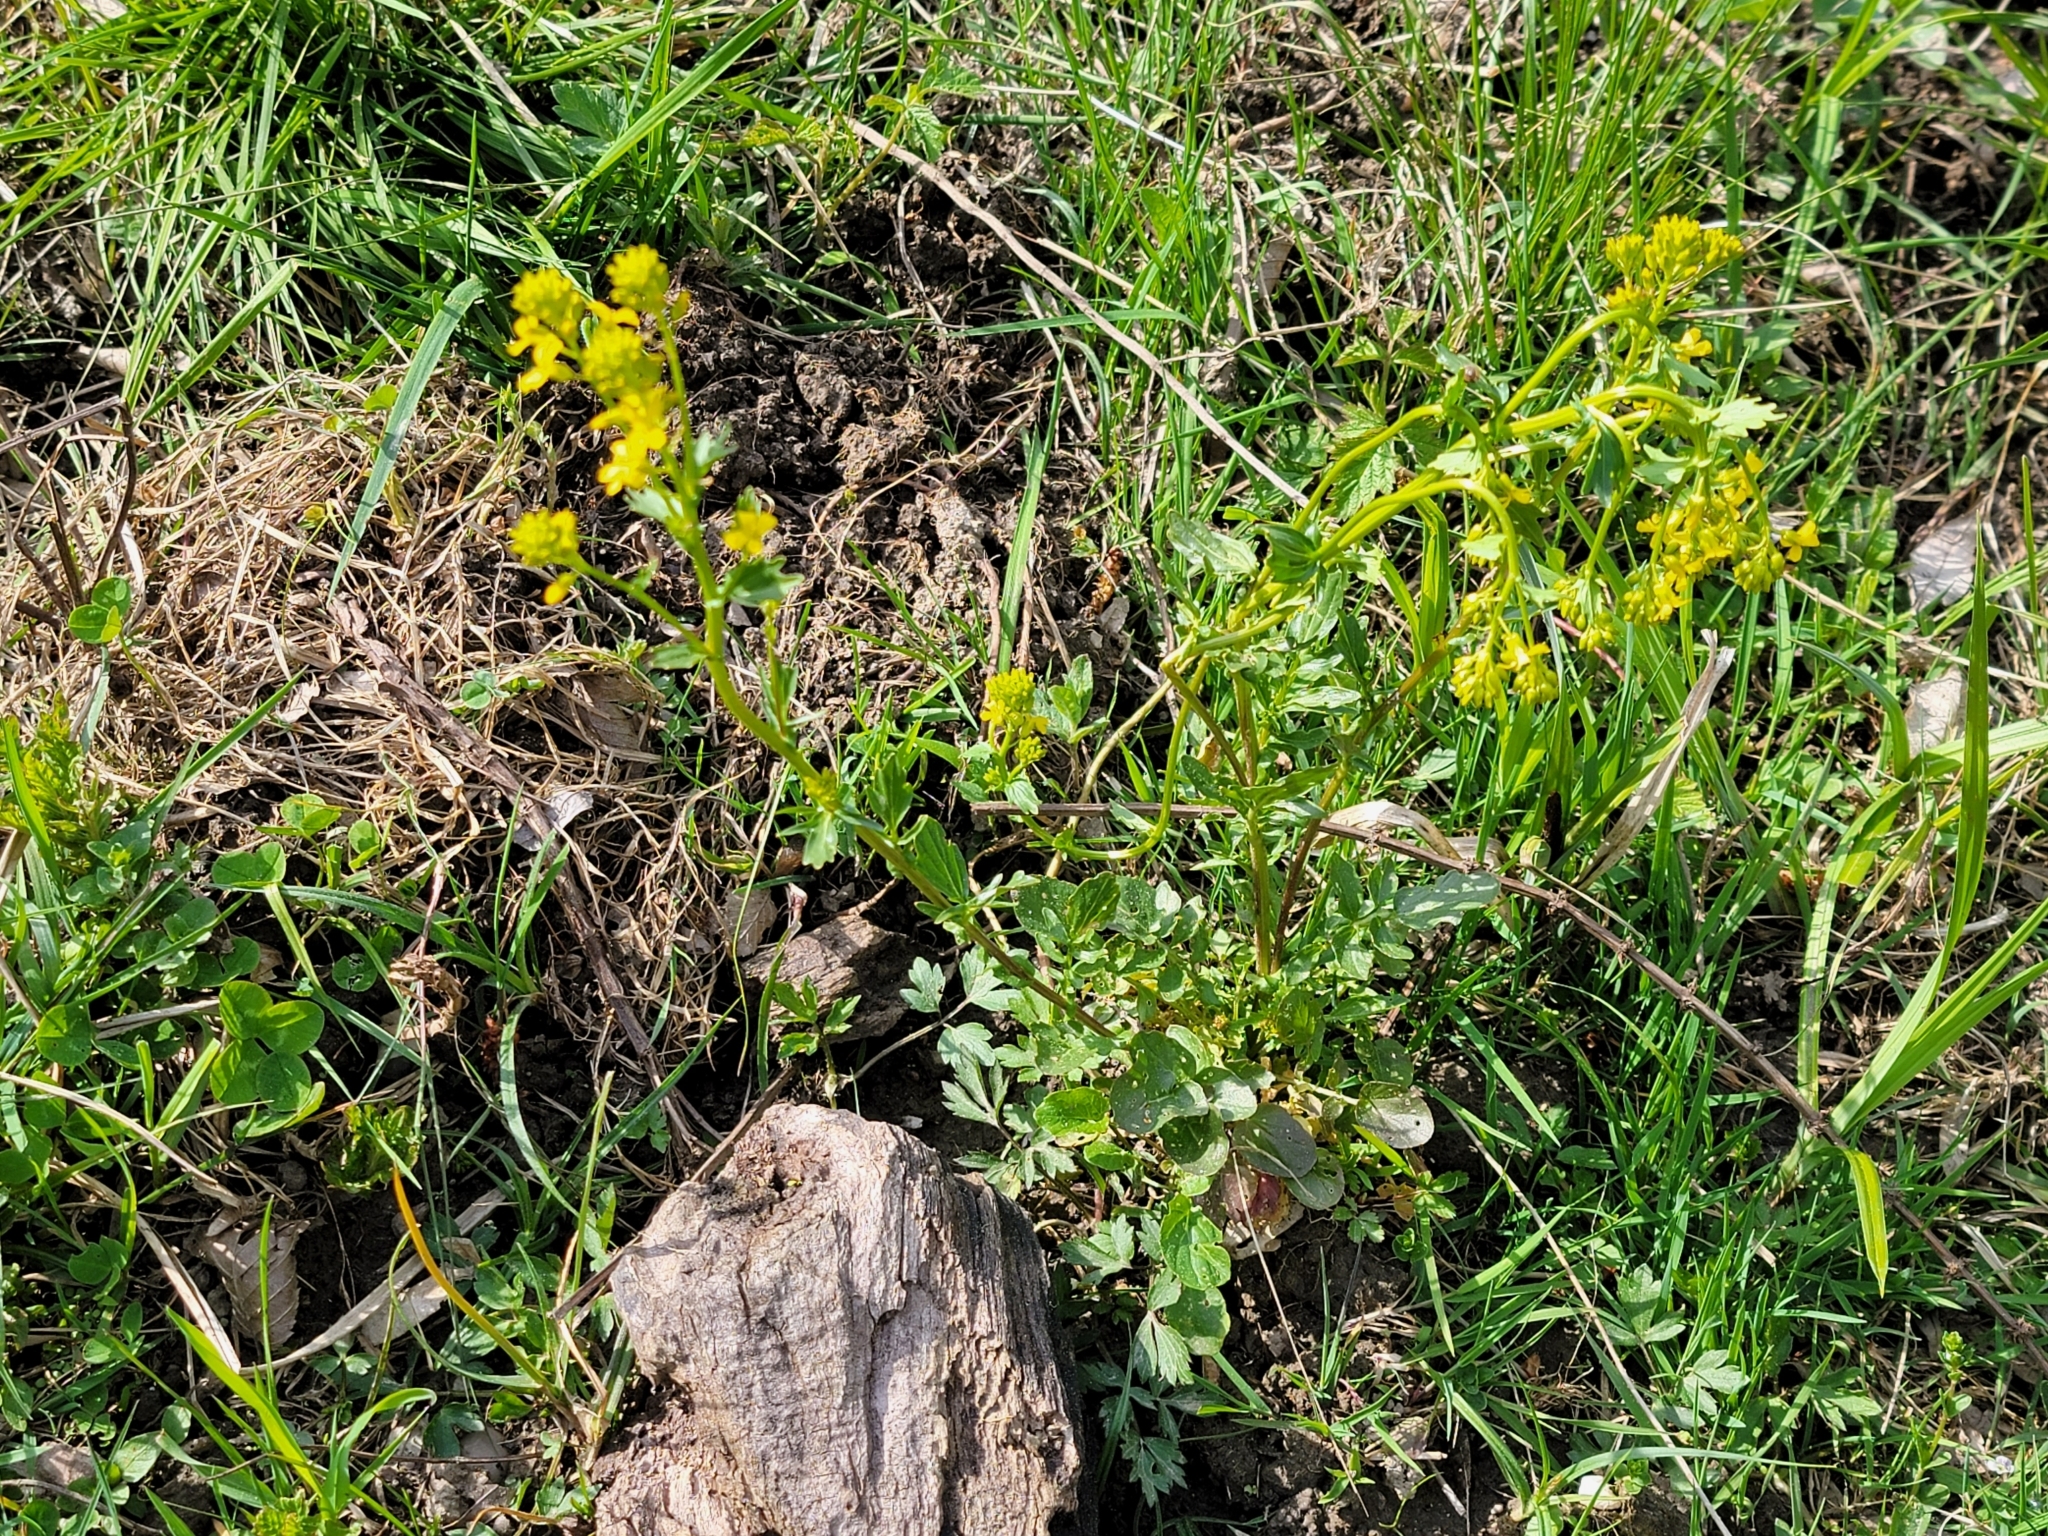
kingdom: Plantae
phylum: Tracheophyta
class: Magnoliopsida
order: Brassicales
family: Brassicaceae
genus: Barbarea
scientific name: Barbarea vulgaris
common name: Cressy-greens
